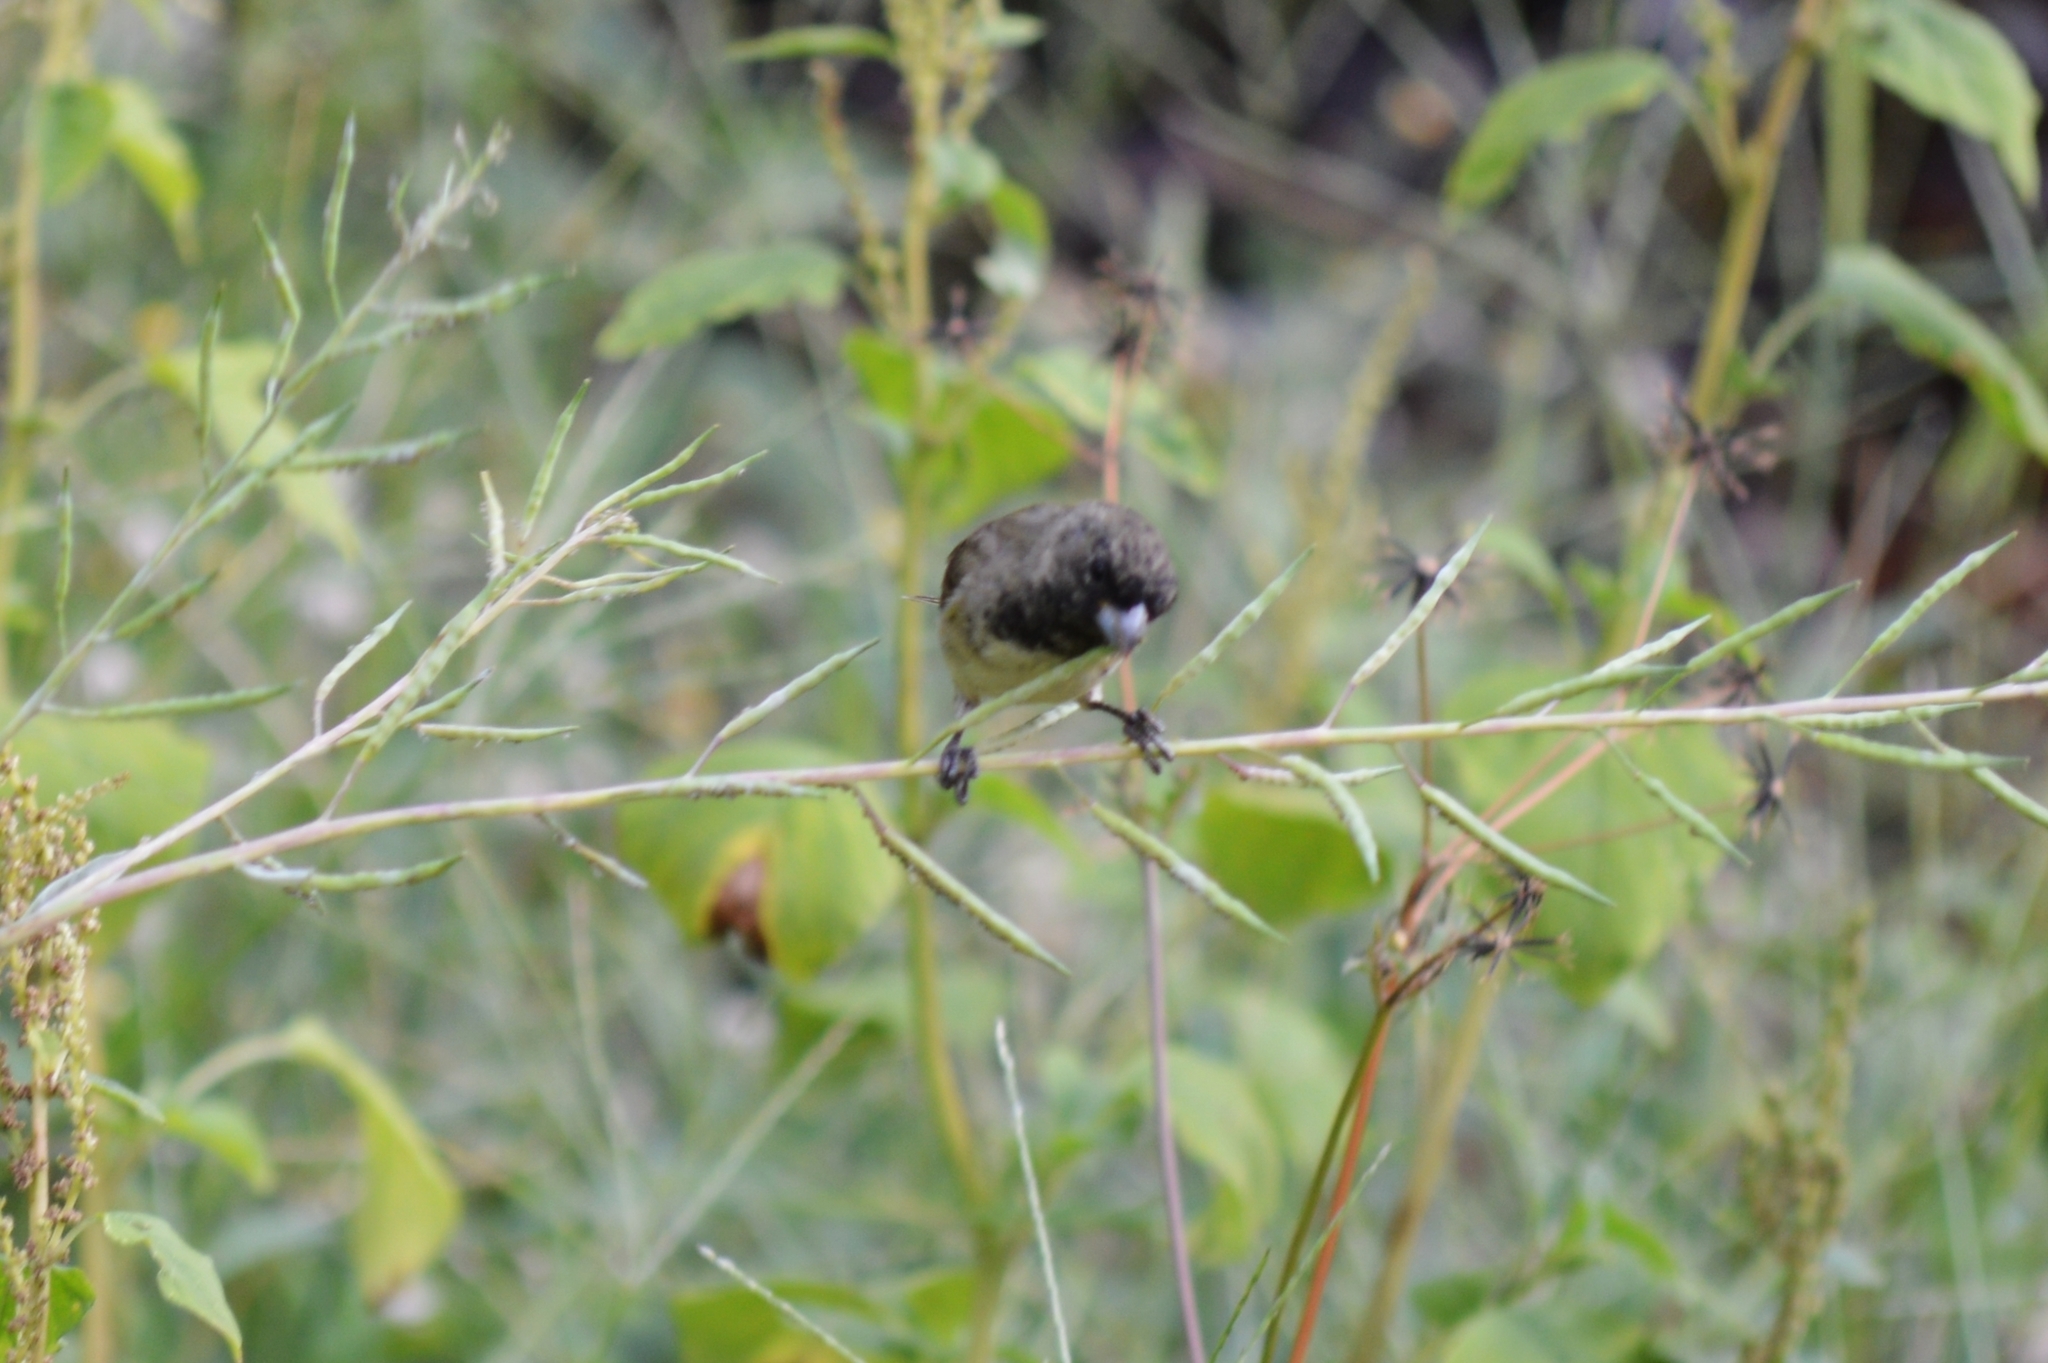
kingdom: Animalia
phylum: Chordata
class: Aves
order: Passeriformes
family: Thraupidae
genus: Sporophila
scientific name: Sporophila nigricollis
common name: Yellow-bellied seedeater
